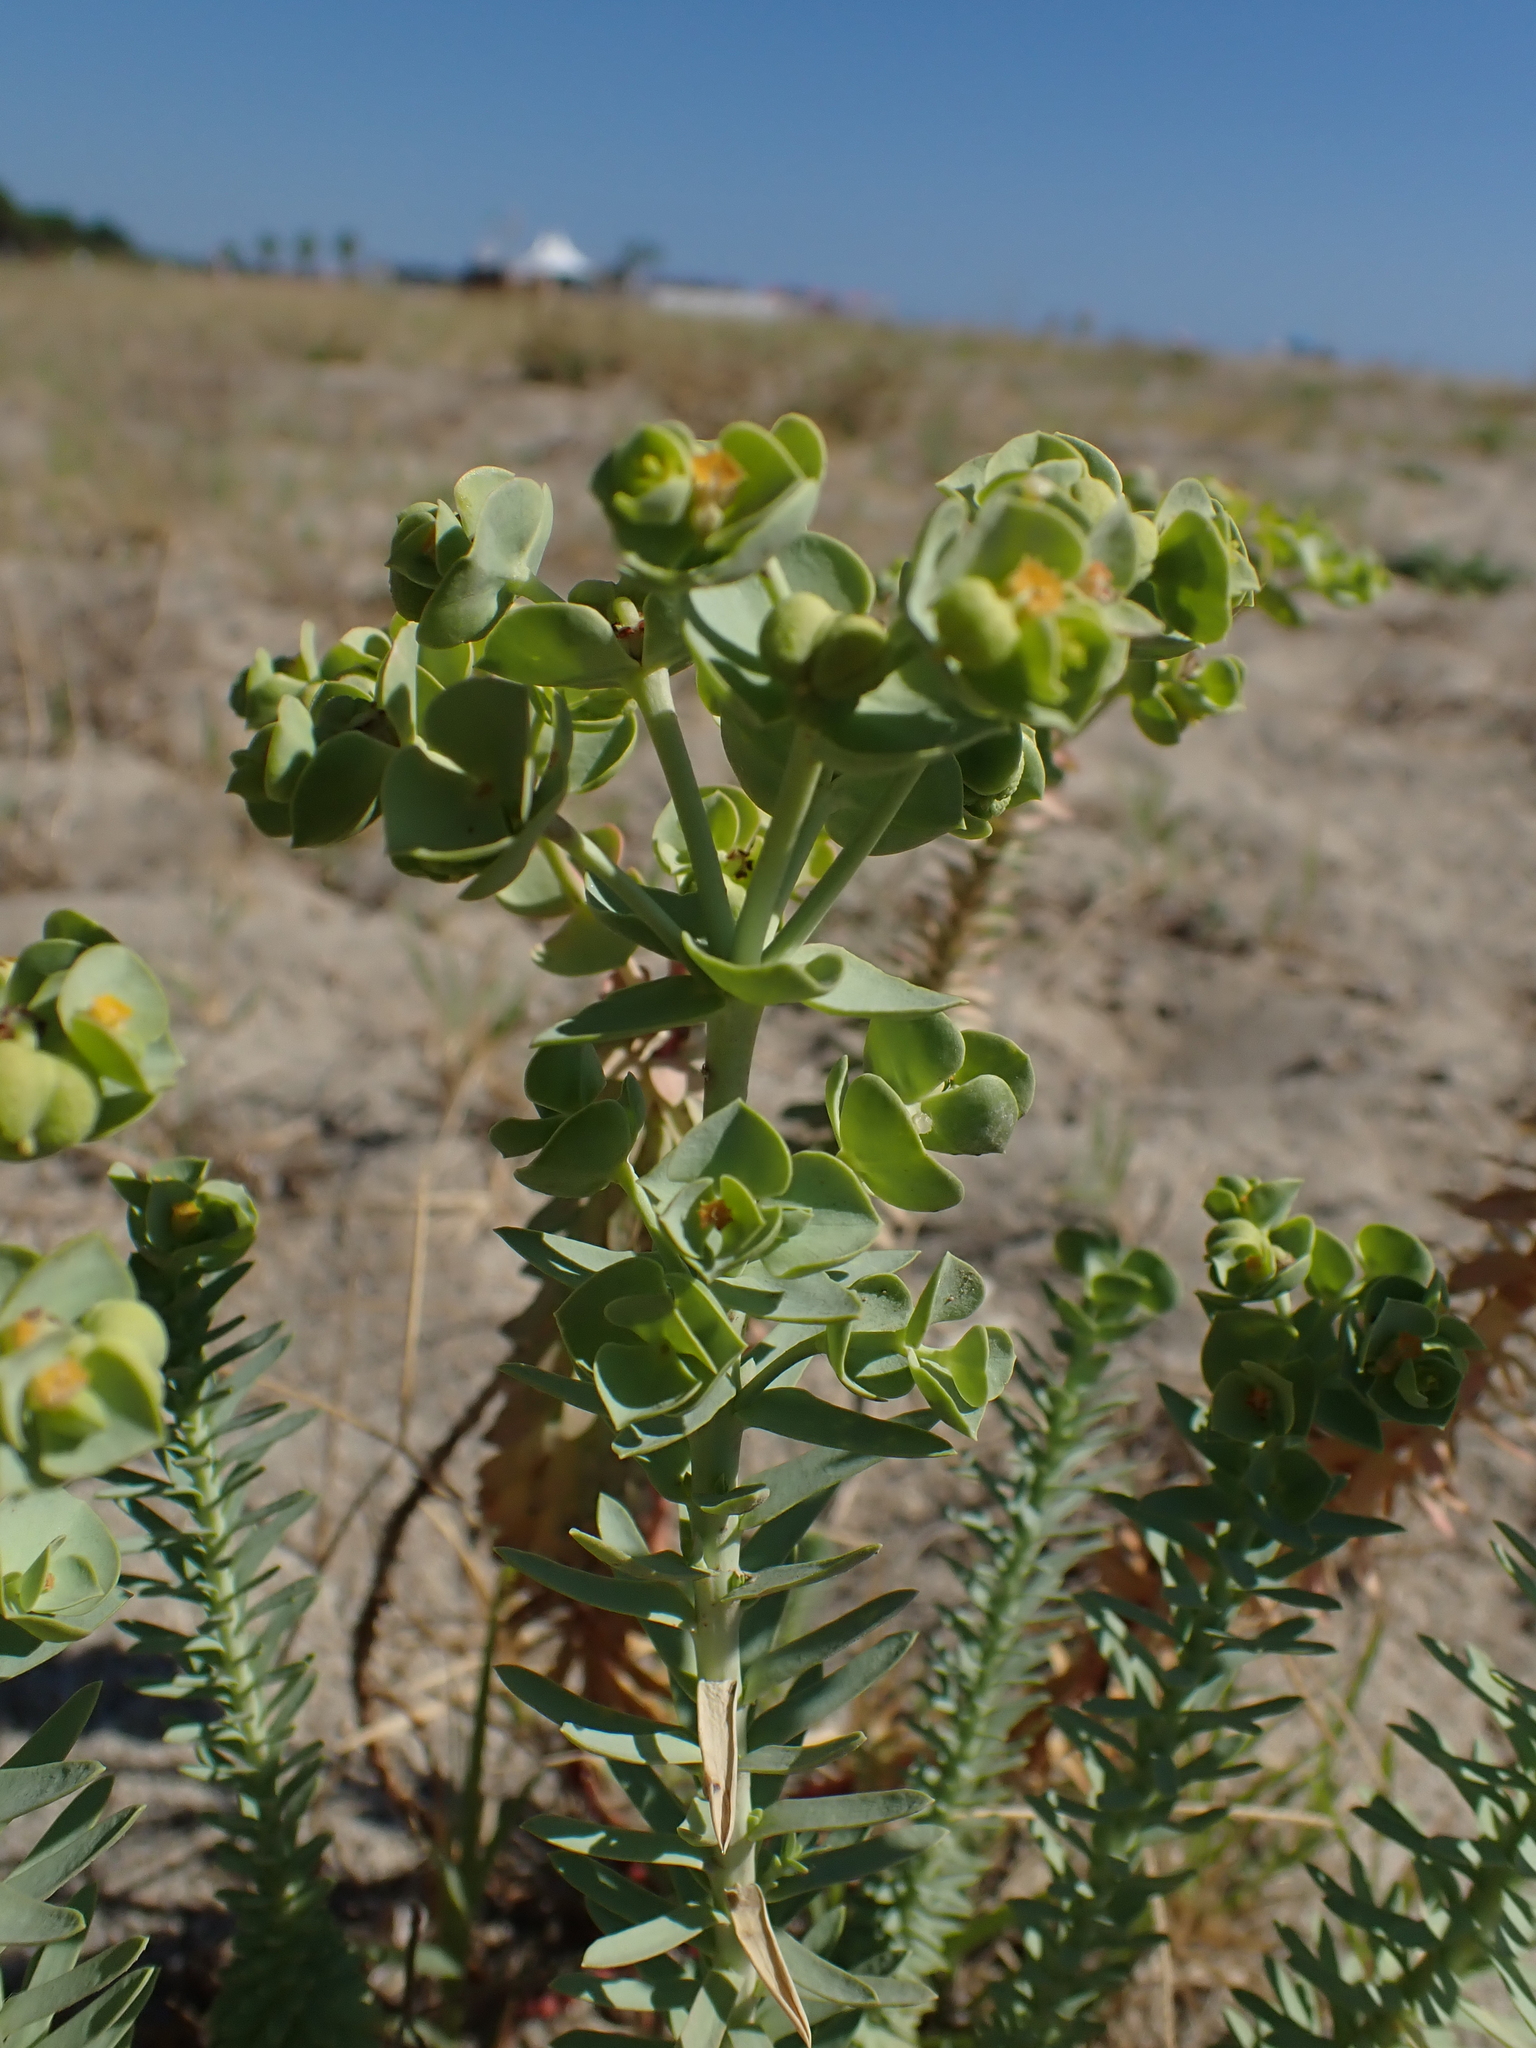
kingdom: Plantae
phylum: Tracheophyta
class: Magnoliopsida
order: Malpighiales
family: Euphorbiaceae
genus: Euphorbia
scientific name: Euphorbia paralias
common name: Sea spurge
